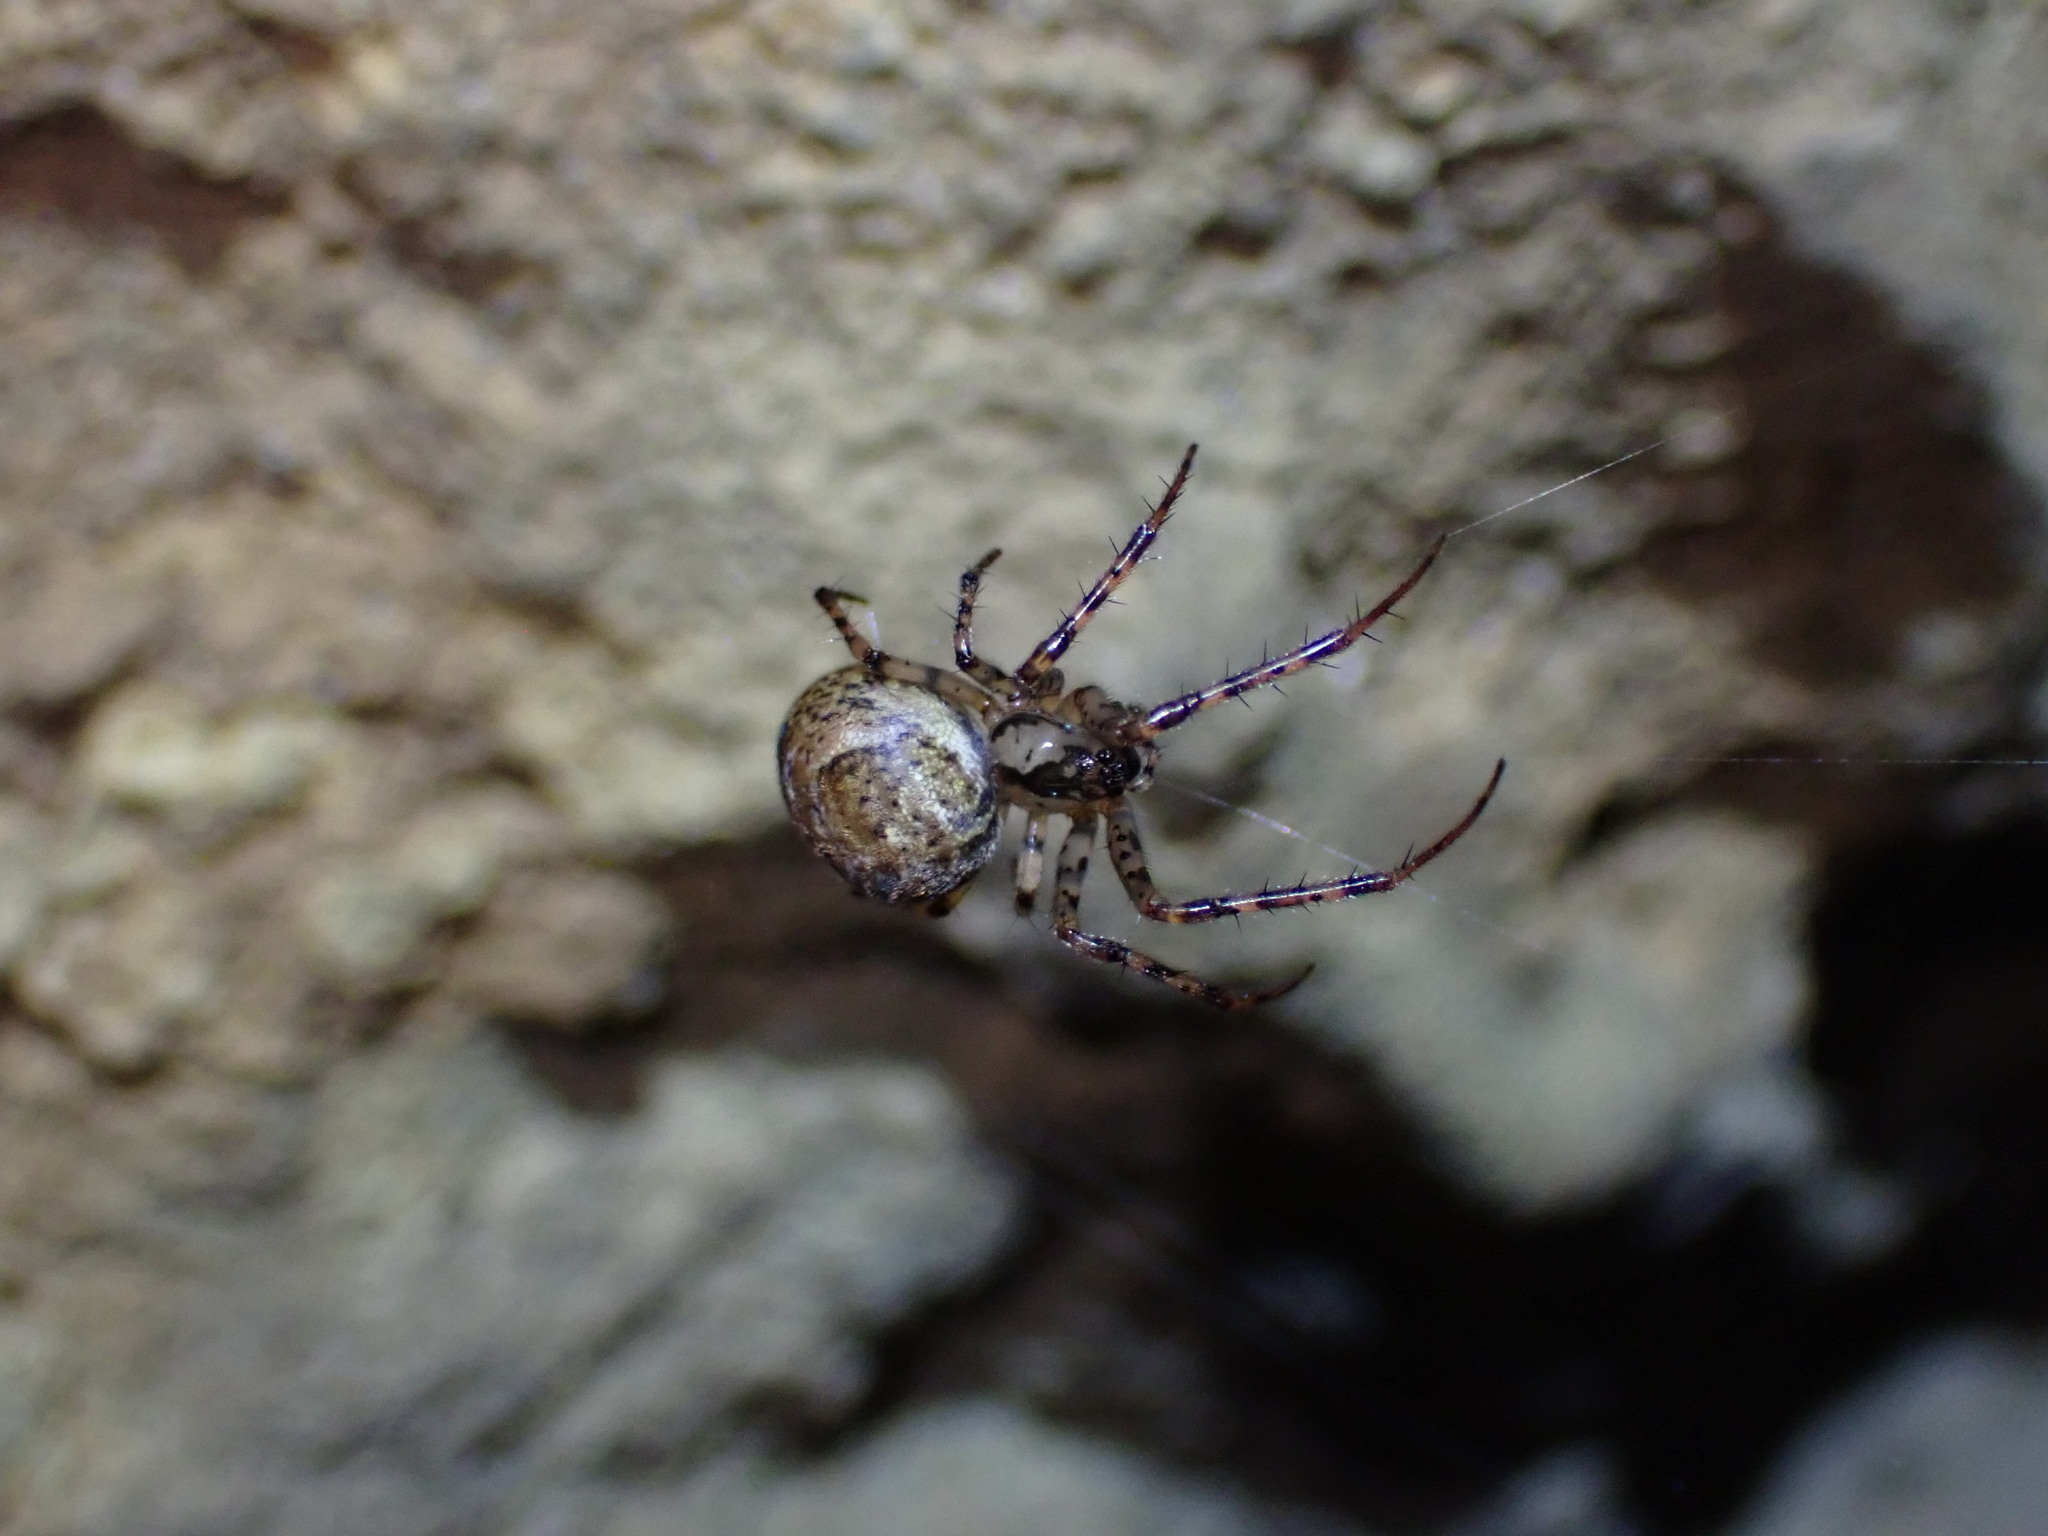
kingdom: Animalia
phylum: Arthropoda
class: Arachnida
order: Araneae
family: Tetragnathidae
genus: Metellina
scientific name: Metellina merianae
